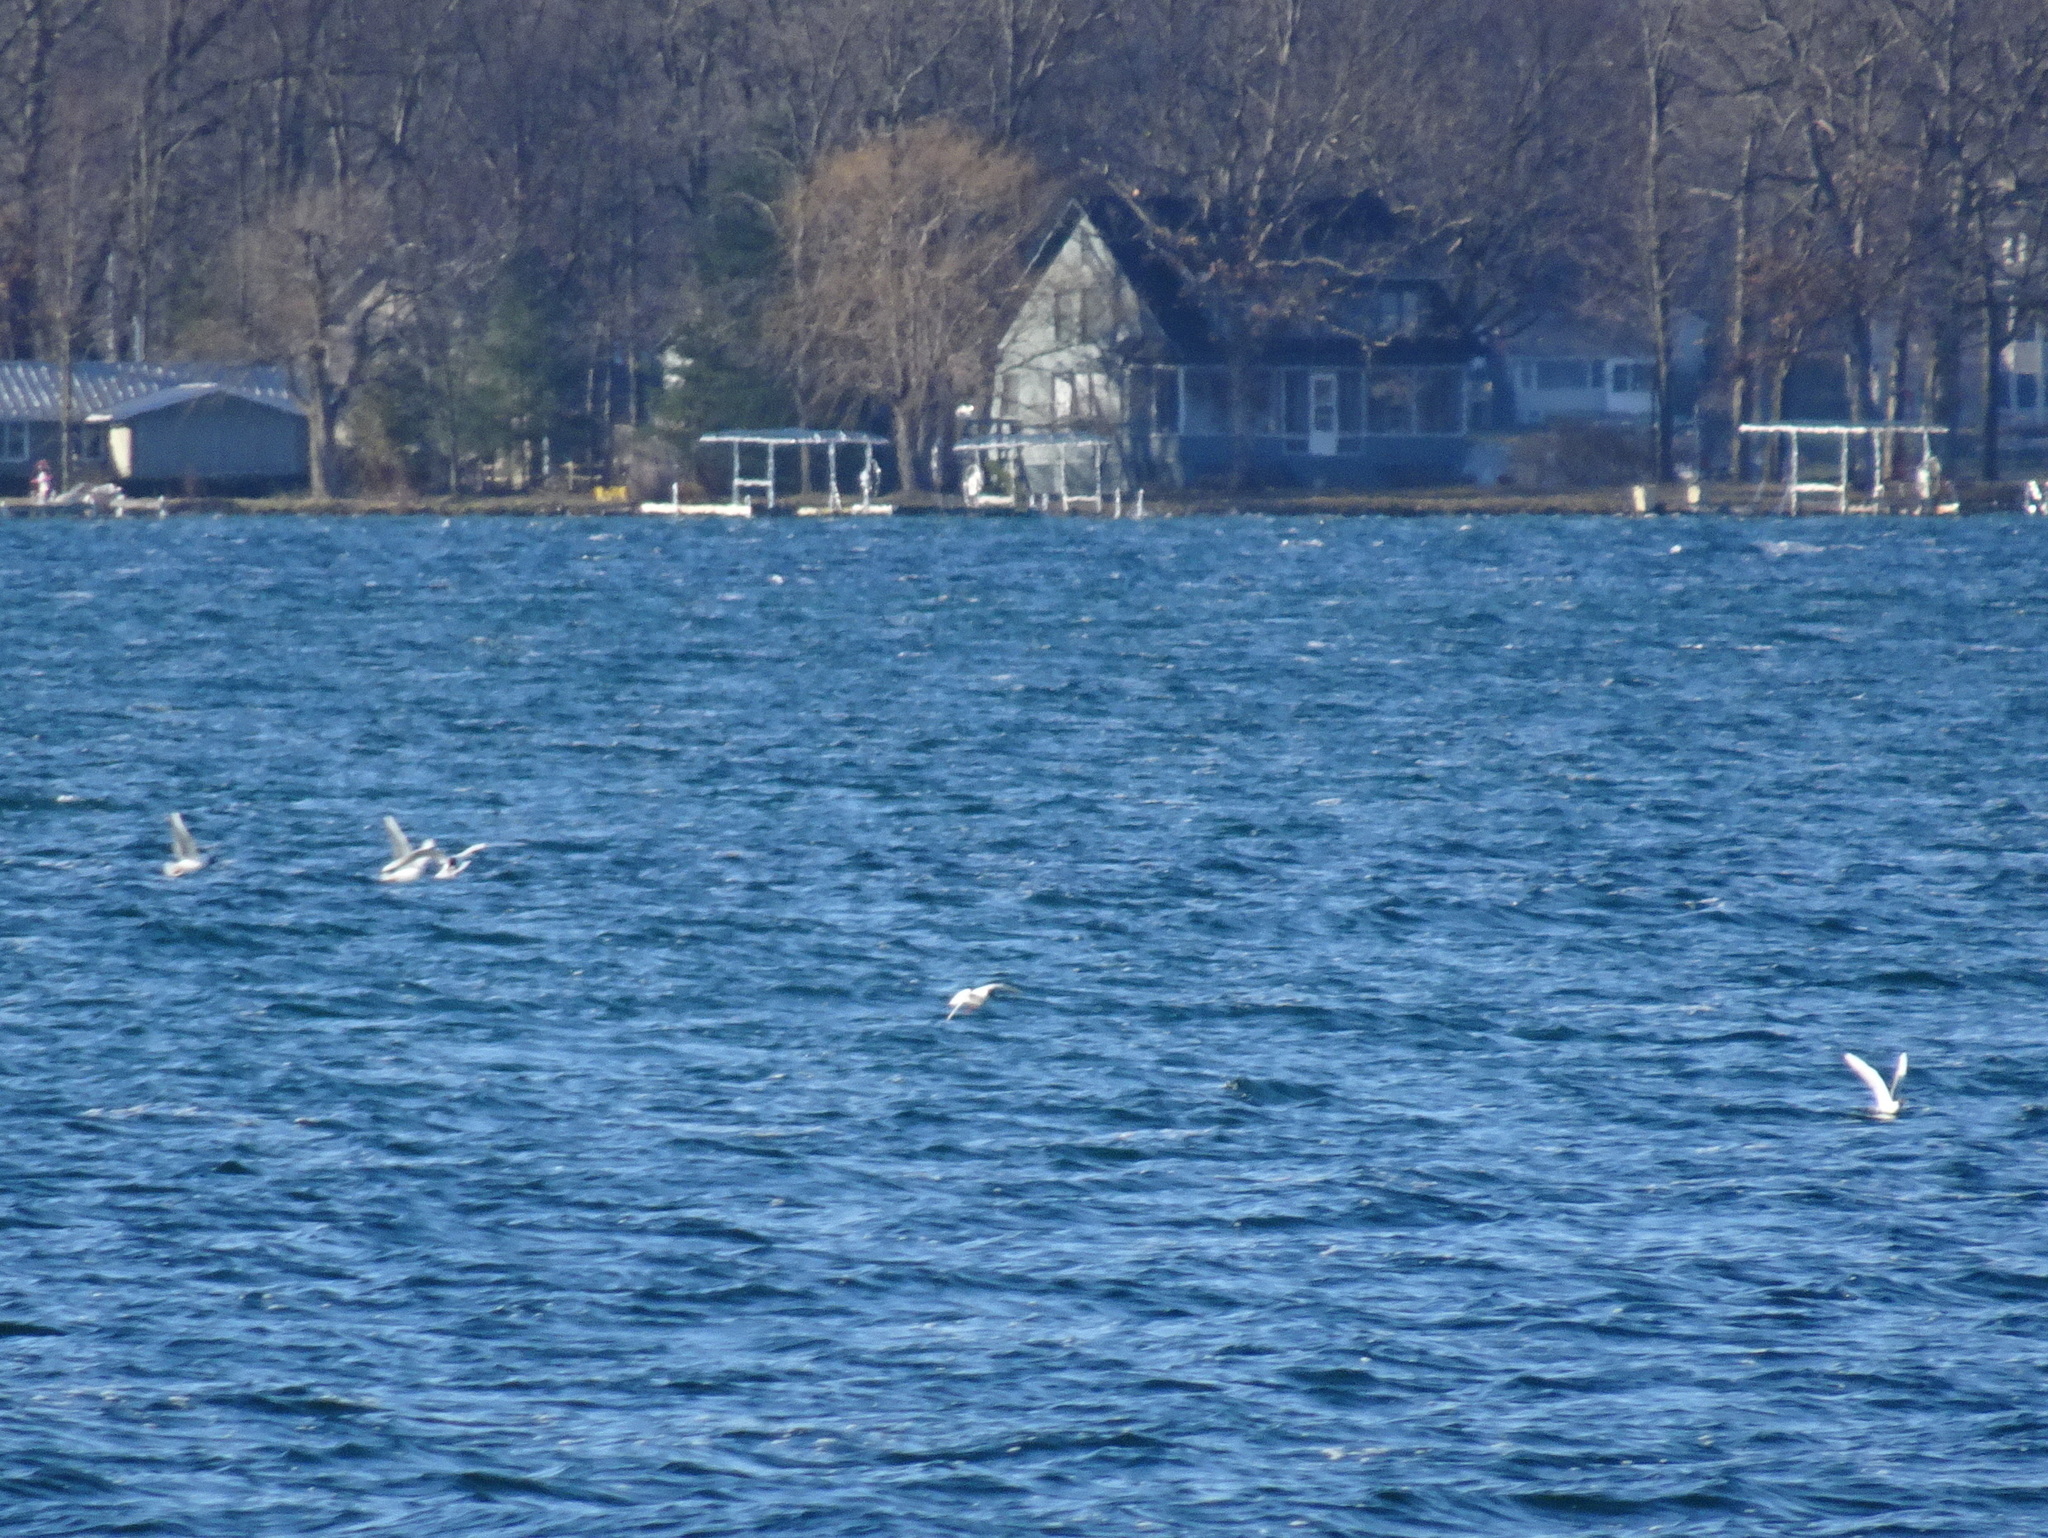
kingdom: Animalia
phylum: Chordata
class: Aves
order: Charadriiformes
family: Laridae
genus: Chroicocephalus
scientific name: Chroicocephalus philadelphia
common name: Bonaparte's gull
